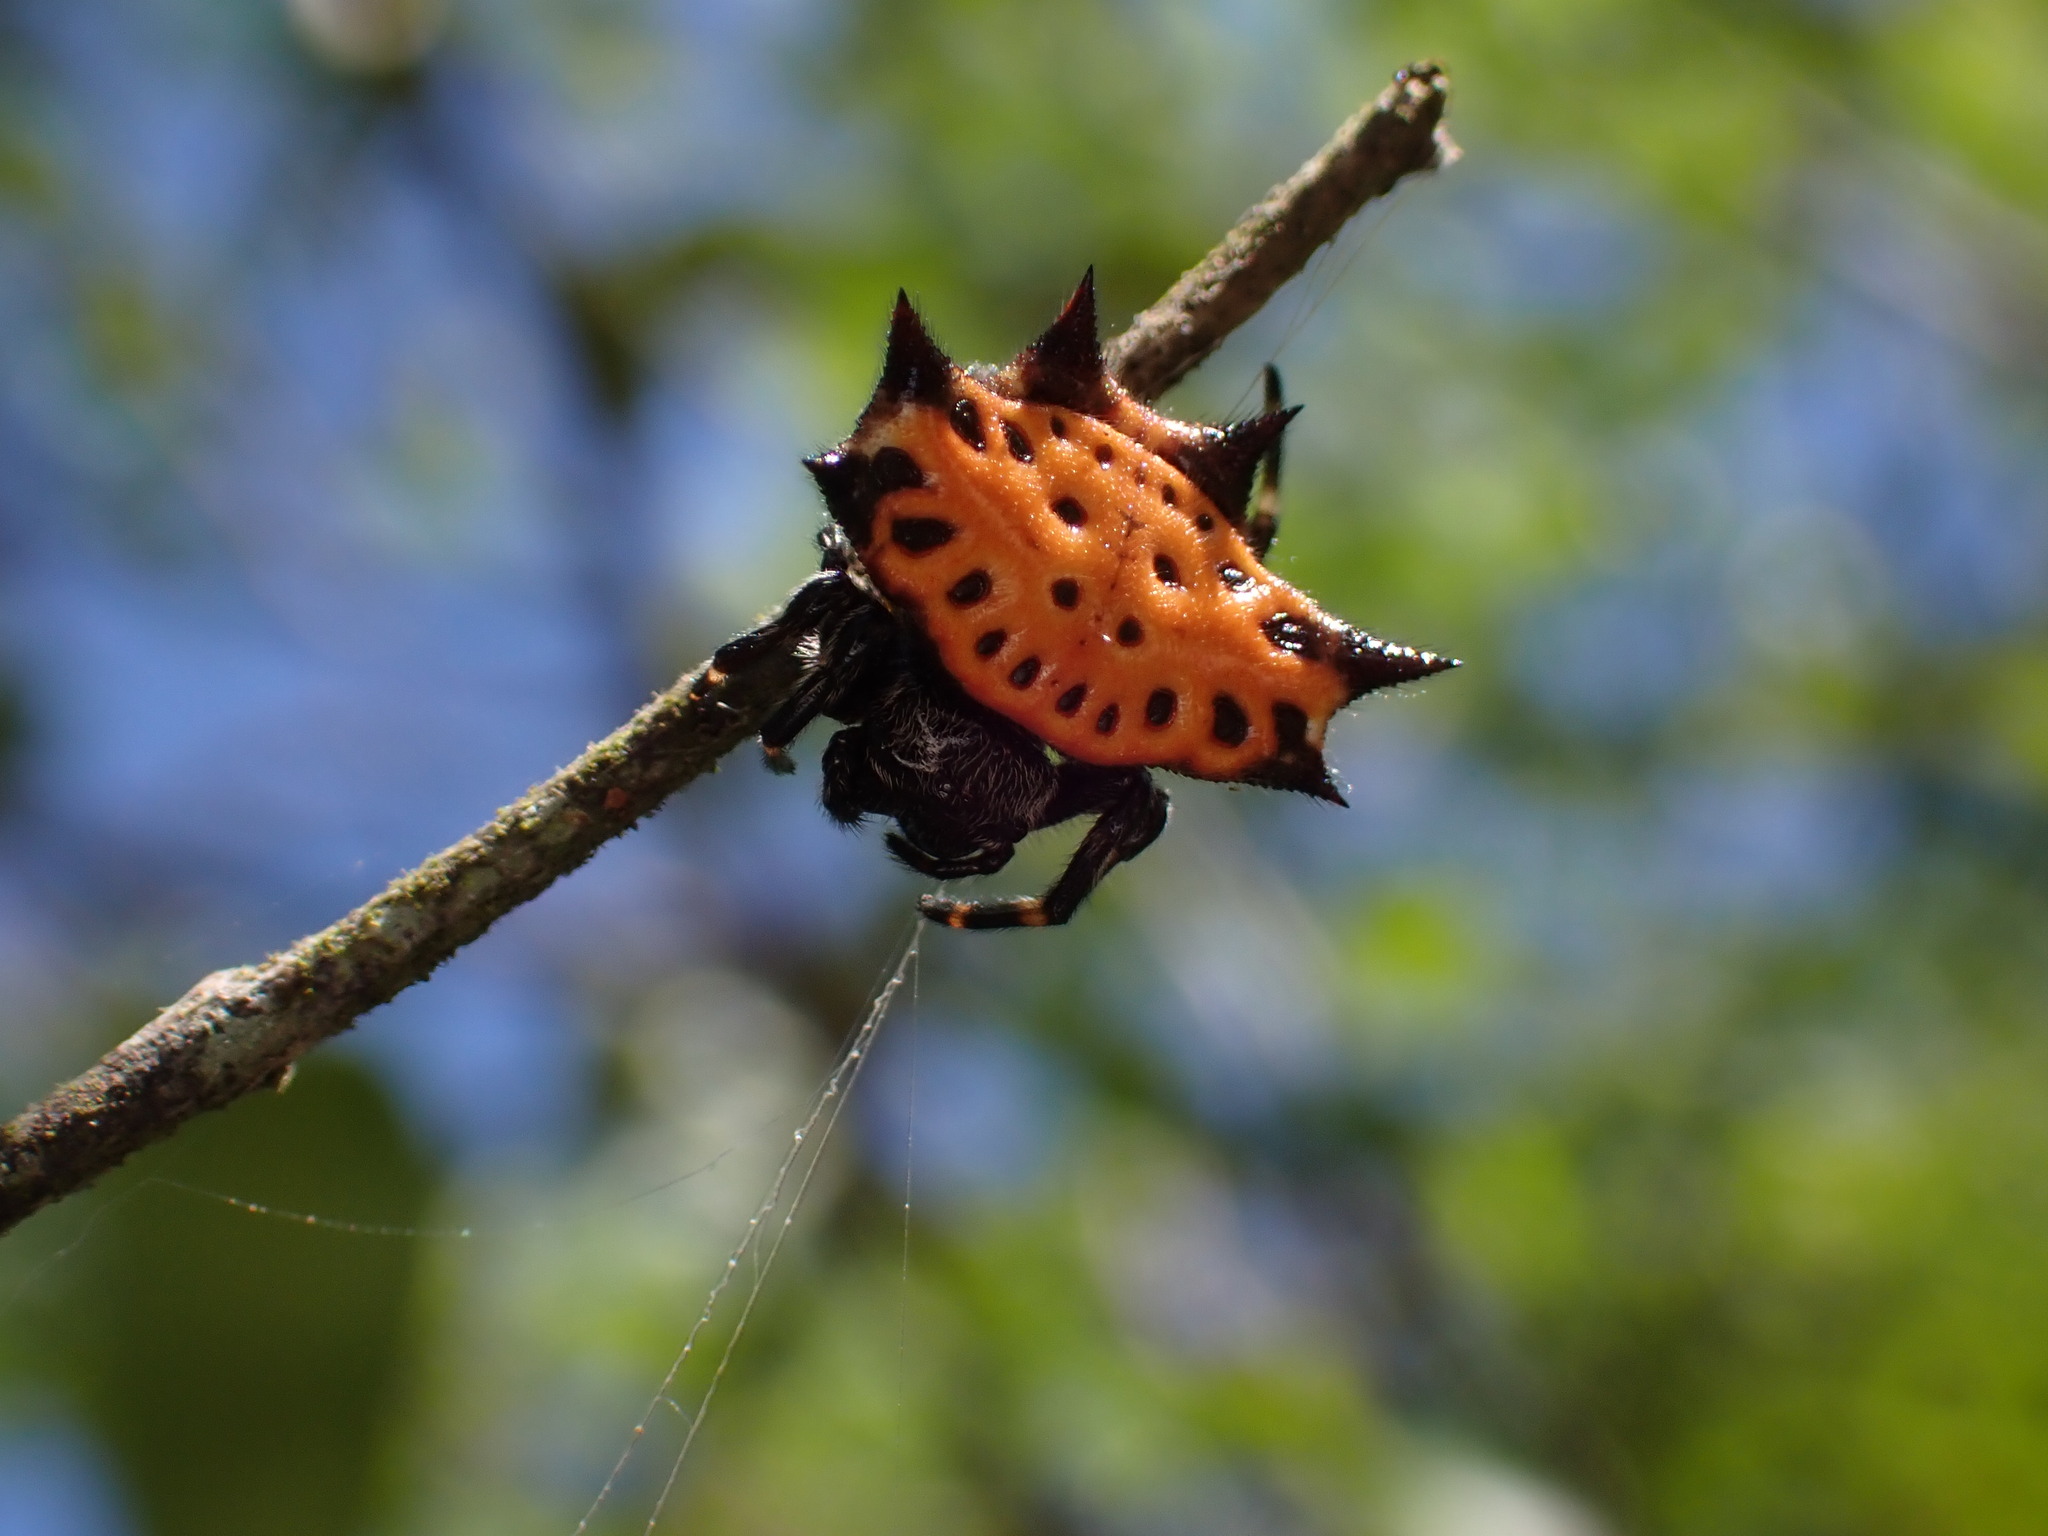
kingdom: Animalia
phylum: Arthropoda
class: Arachnida
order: Araneae
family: Araneidae
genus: Gasteracantha
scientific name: Gasteracantha cancriformis
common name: Orb weavers
